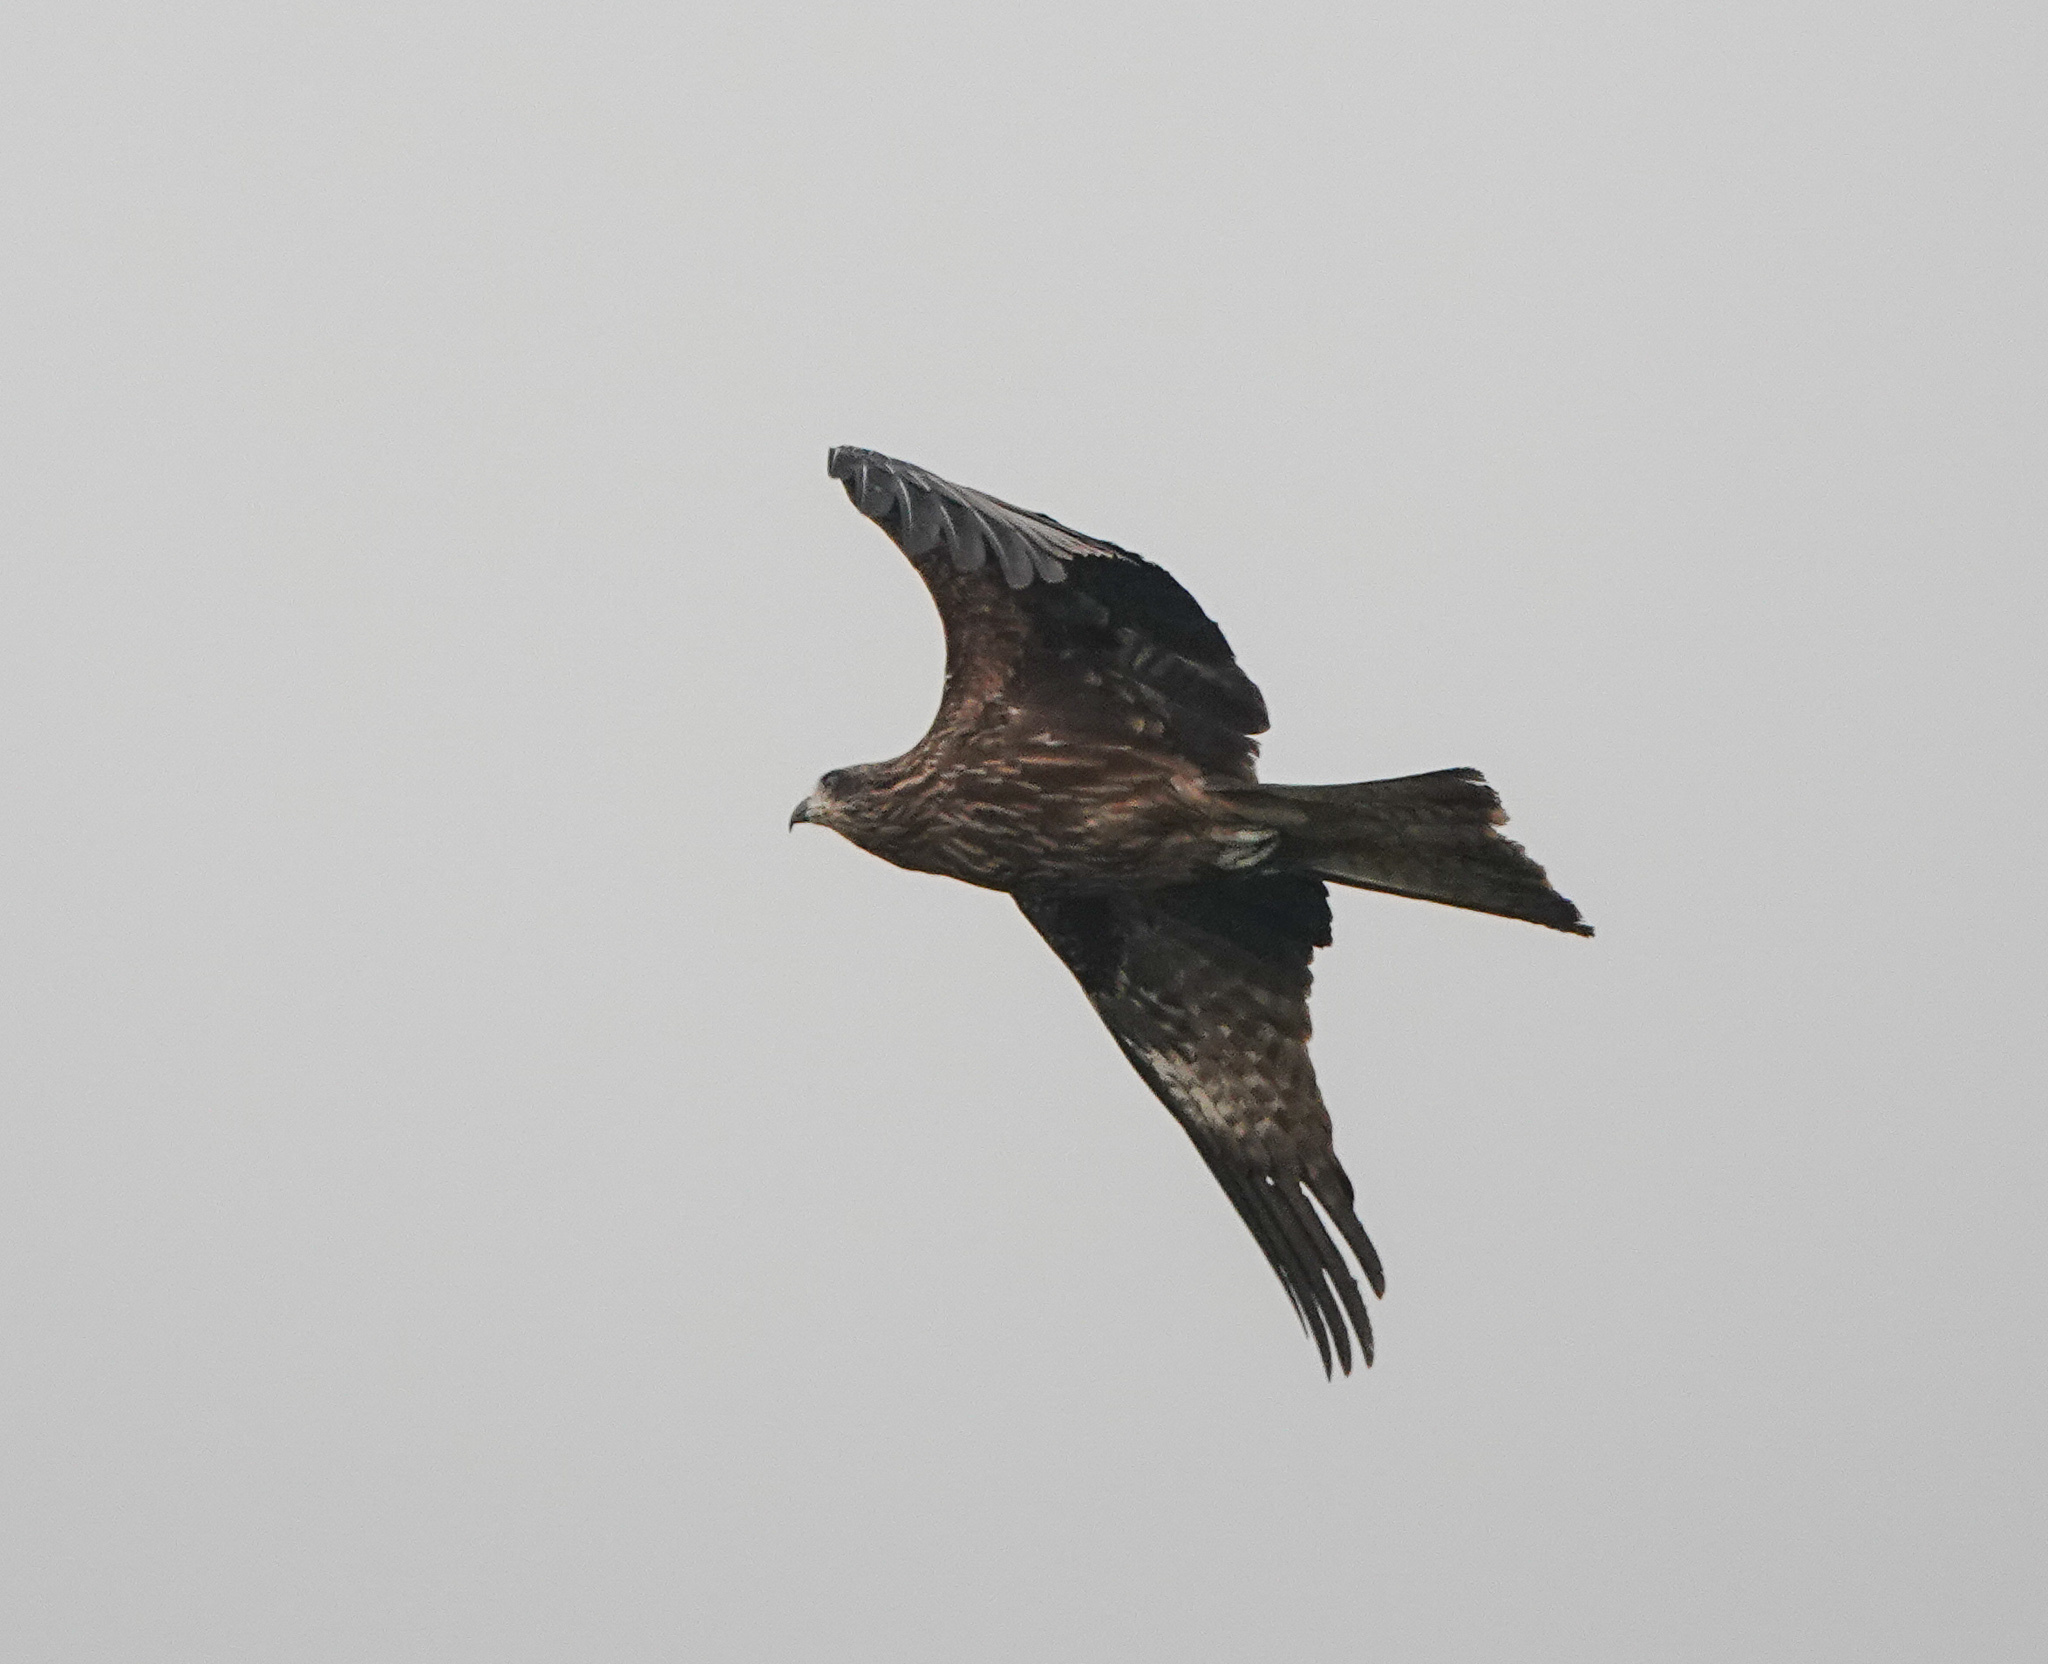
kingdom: Animalia
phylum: Chordata
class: Aves
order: Accipitriformes
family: Accipitridae
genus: Milvus
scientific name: Milvus migrans
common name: Black kite
